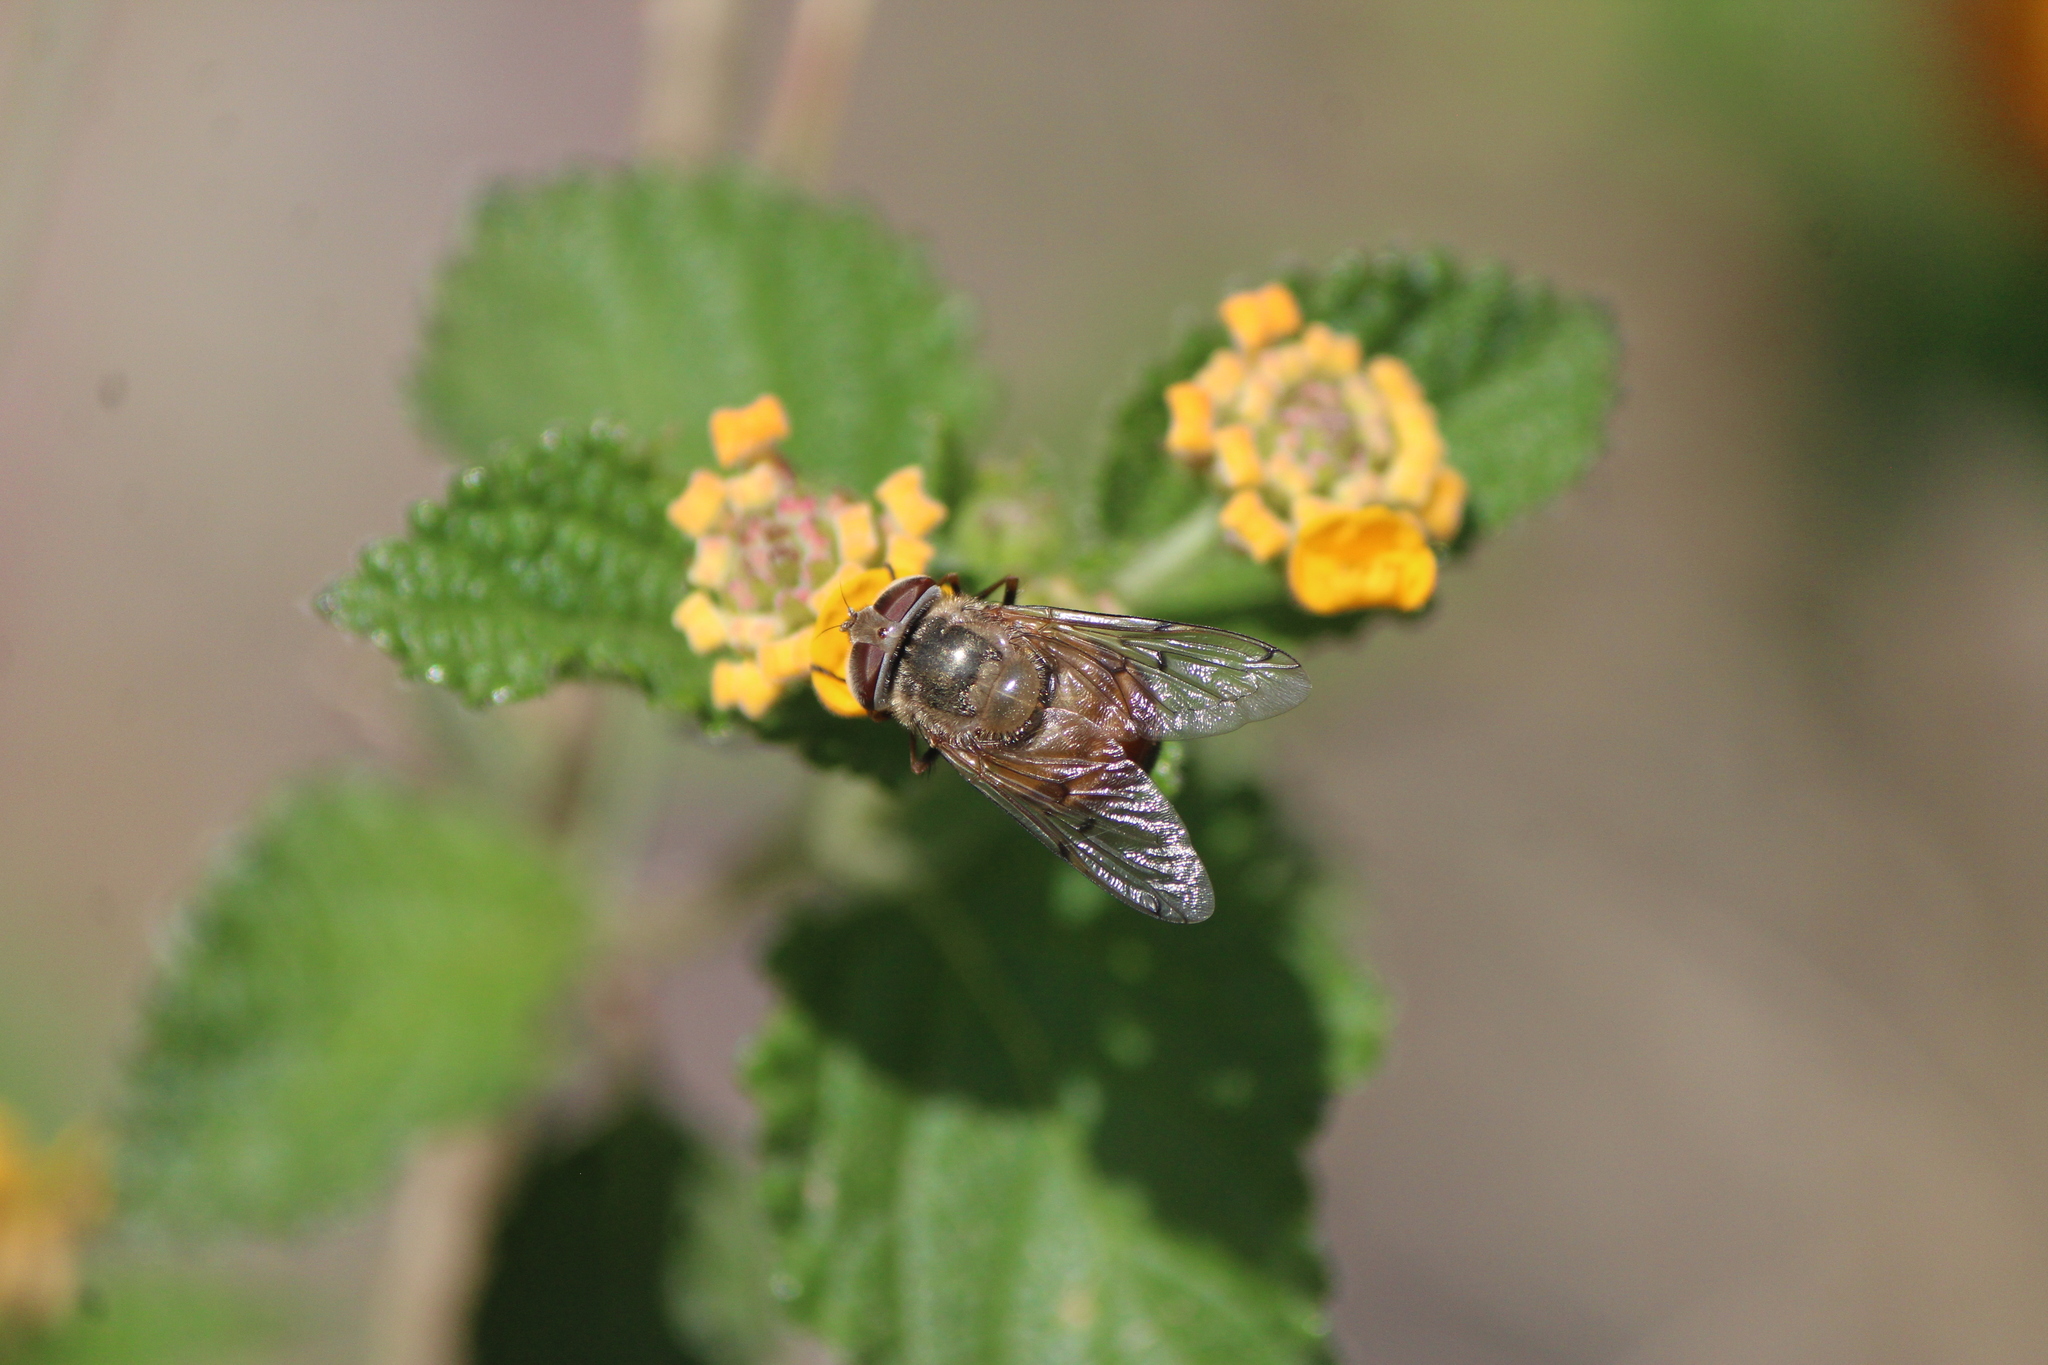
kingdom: Animalia
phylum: Arthropoda
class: Insecta
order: Diptera
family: Syrphidae
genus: Copestylum
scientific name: Copestylum haagii
